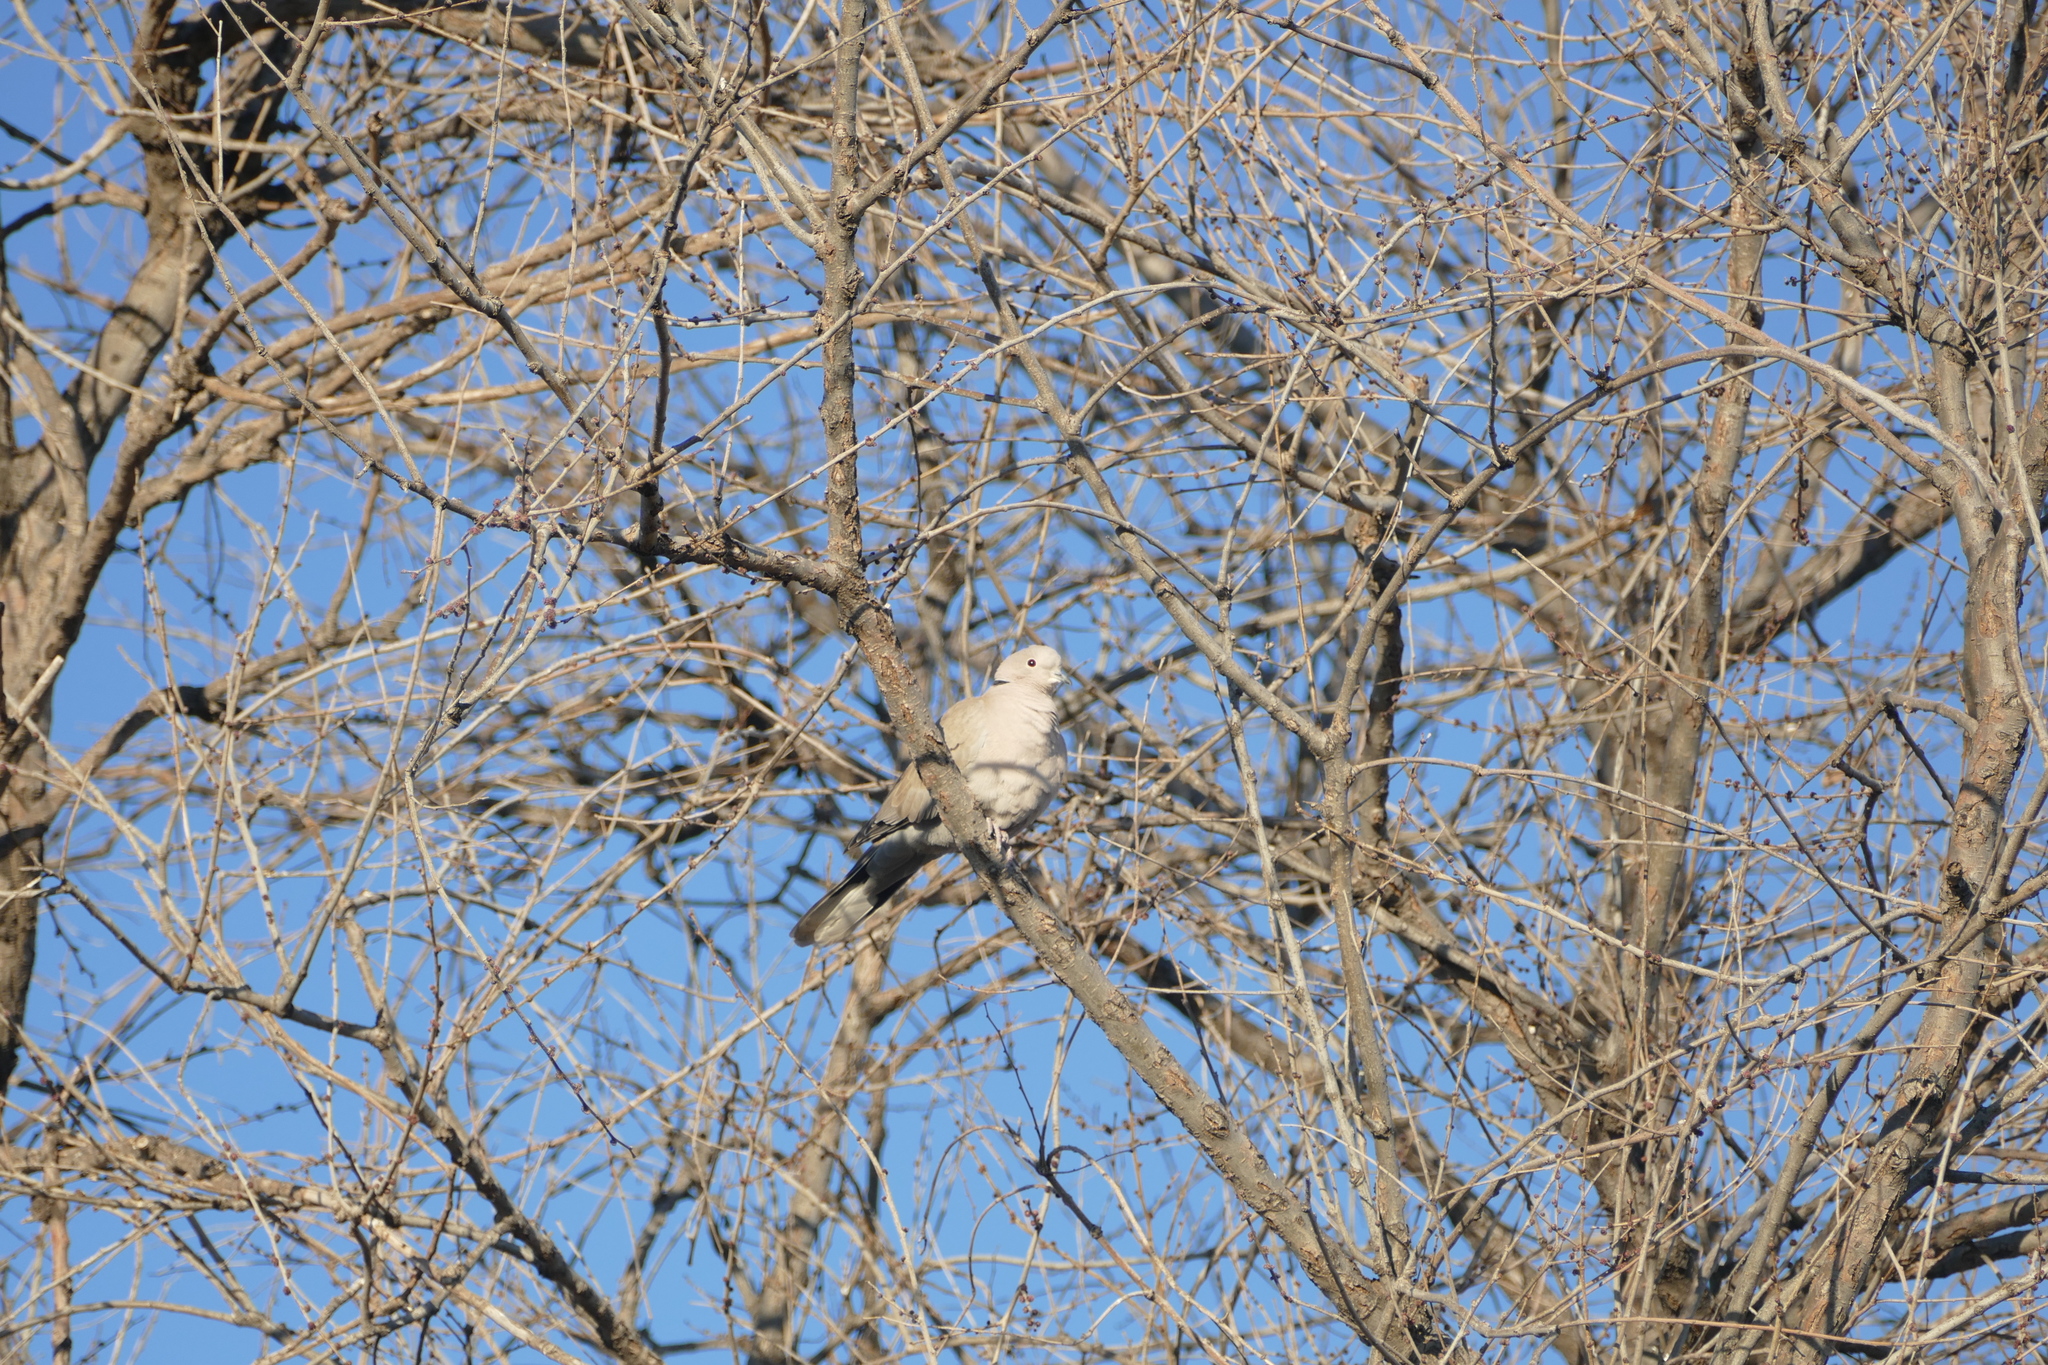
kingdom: Animalia
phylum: Chordata
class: Aves
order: Columbiformes
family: Columbidae
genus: Streptopelia
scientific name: Streptopelia decaocto
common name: Eurasian collared dove
